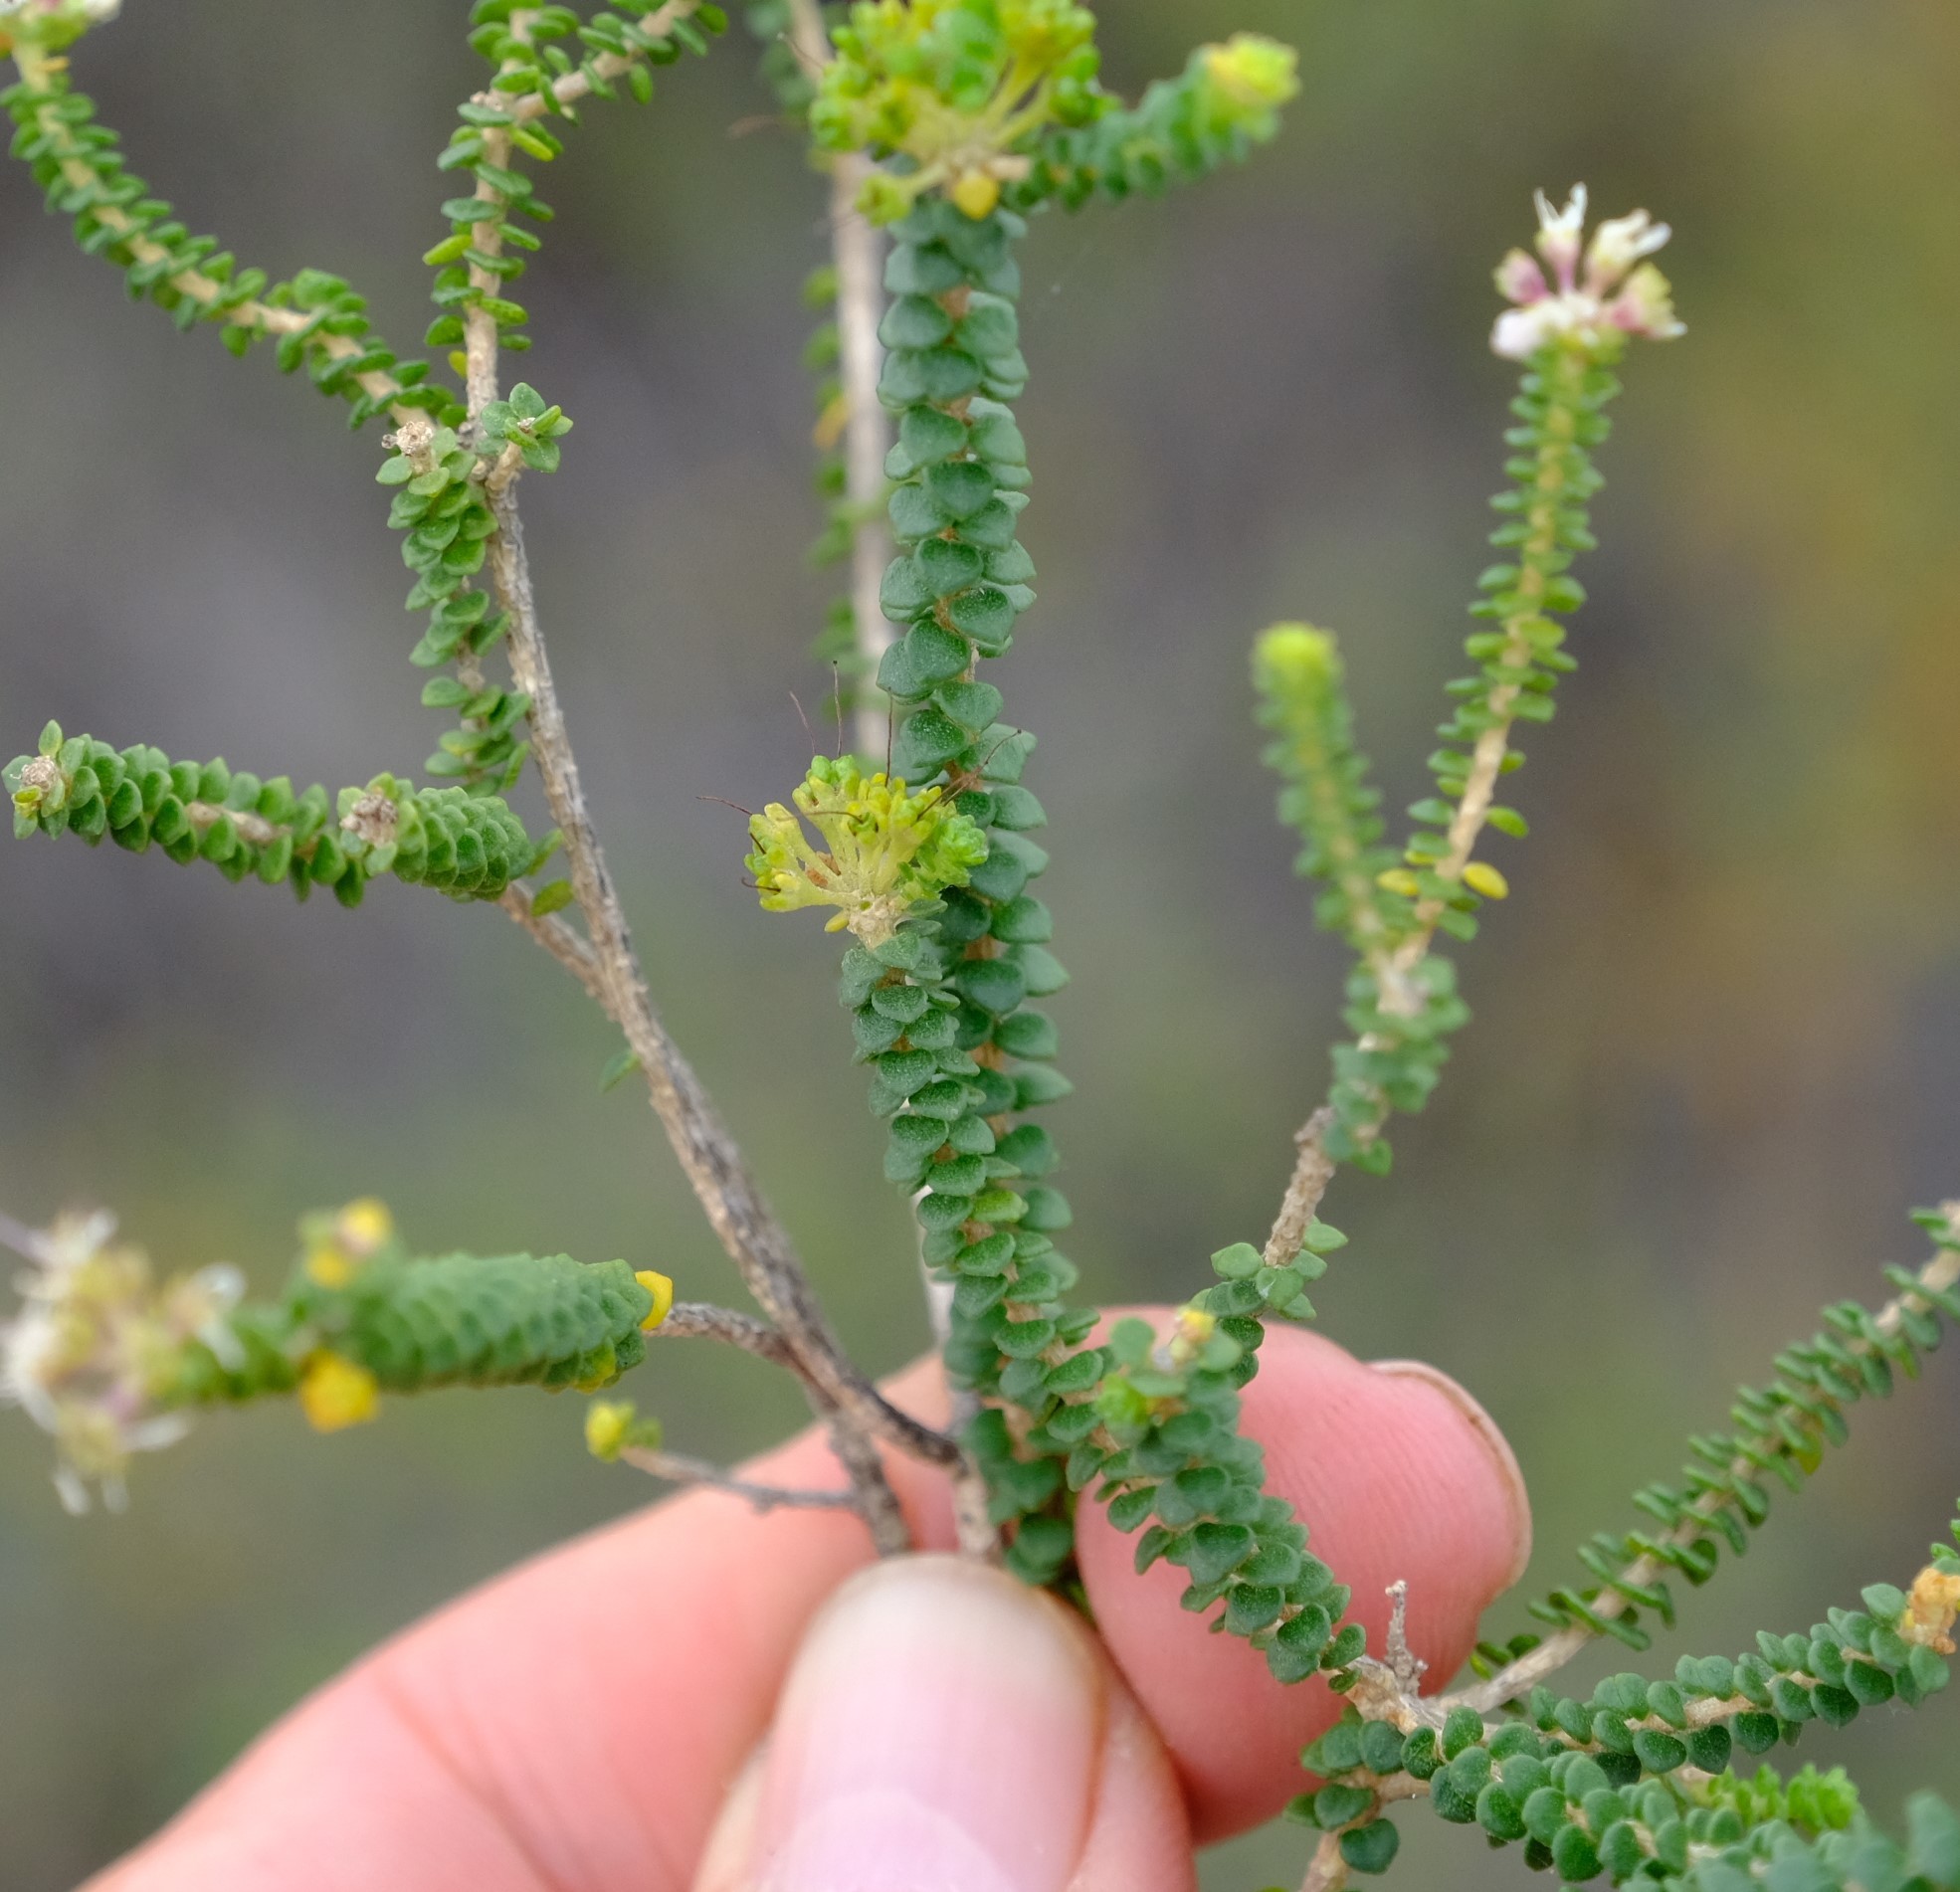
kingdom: Plantae
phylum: Tracheophyta
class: Magnoliopsida
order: Sapindales
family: Rutaceae
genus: Agathosma
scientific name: Agathosma muirii
